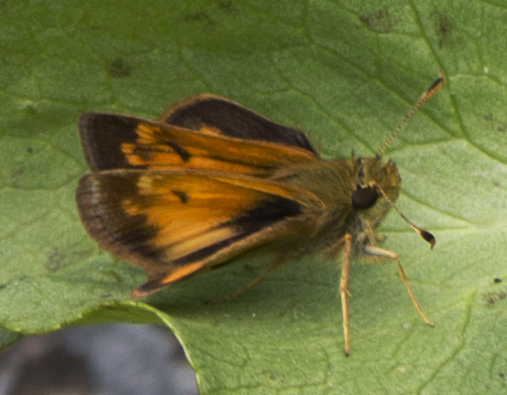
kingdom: Animalia
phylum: Arthropoda
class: Insecta
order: Lepidoptera
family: Hesperiidae
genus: Lon
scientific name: Lon hobomok
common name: Hobomok skipper
